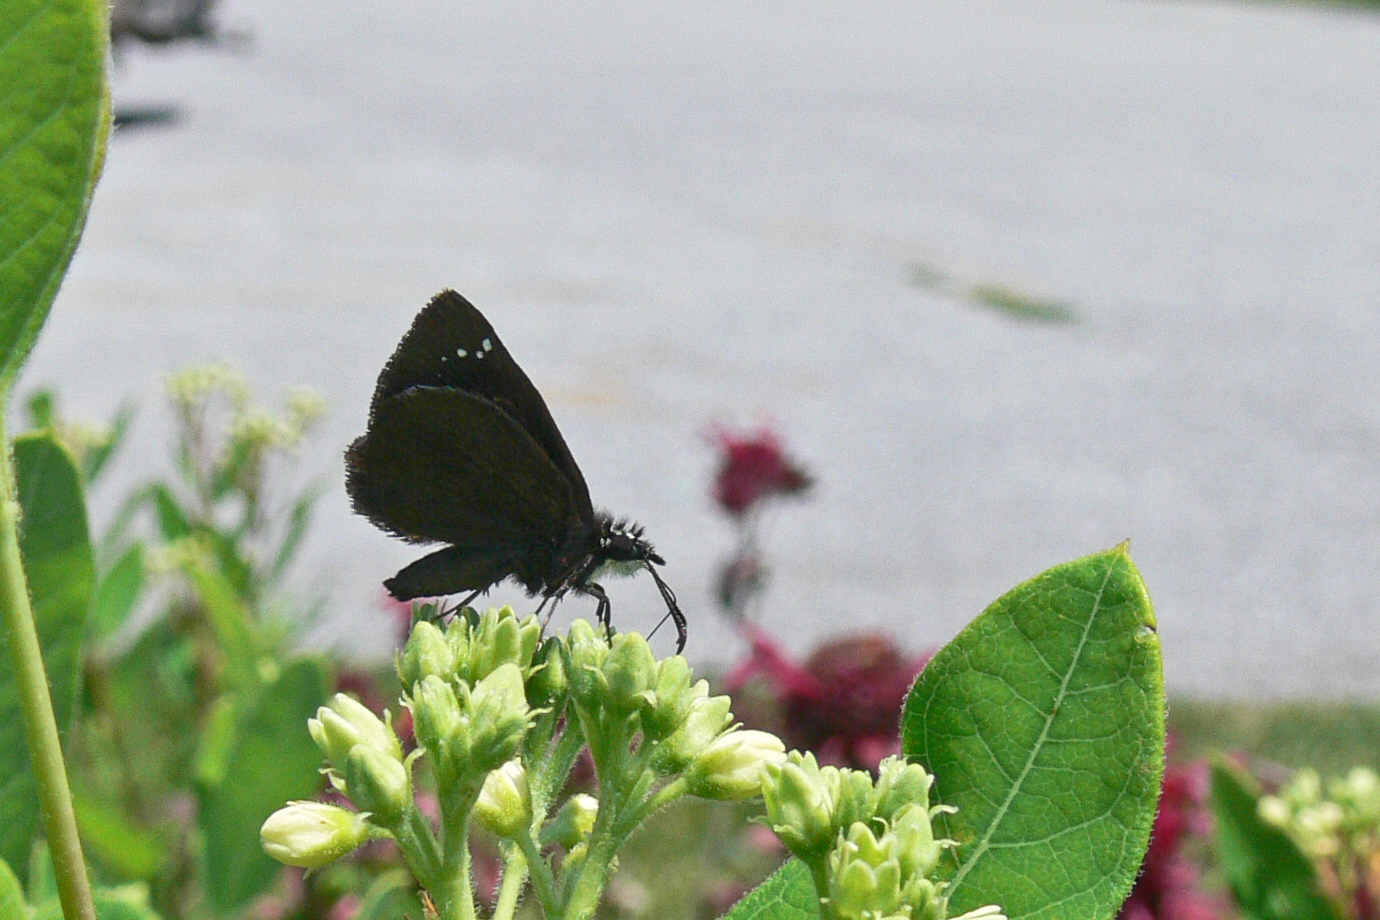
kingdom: Animalia
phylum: Arthropoda
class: Insecta
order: Lepidoptera
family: Hesperiidae
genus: Pholisora
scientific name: Pholisora catullus
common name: Common sootywing
